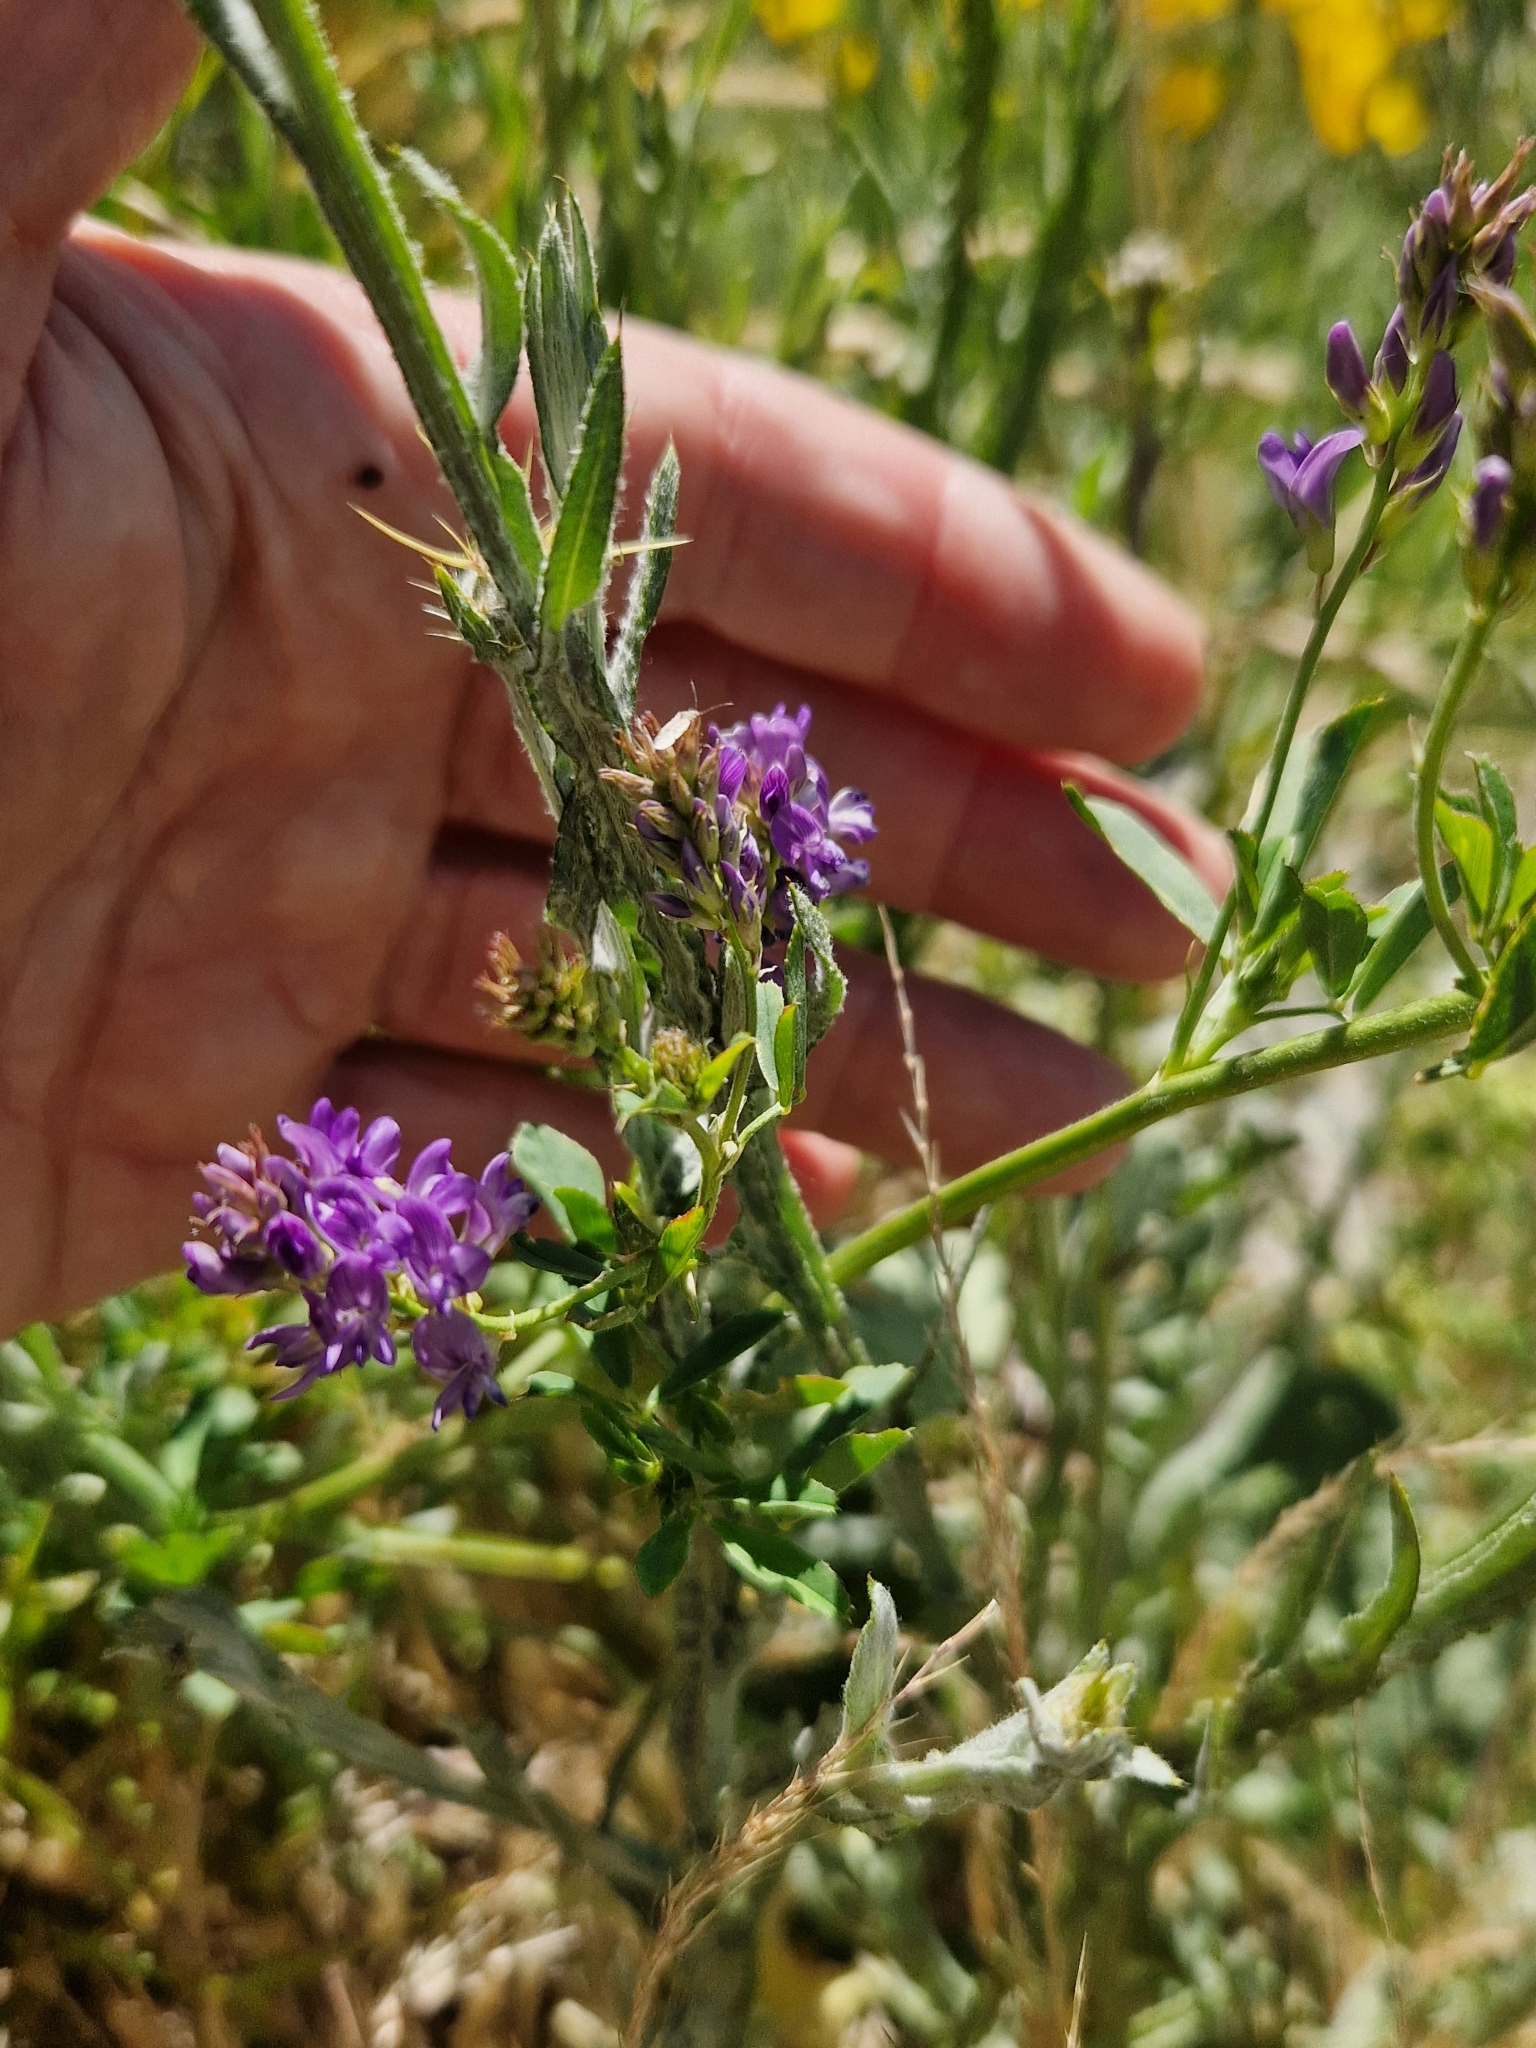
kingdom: Plantae
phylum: Tracheophyta
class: Magnoliopsida
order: Fabales
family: Fabaceae
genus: Medicago
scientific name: Medicago sativa
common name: Alfalfa
